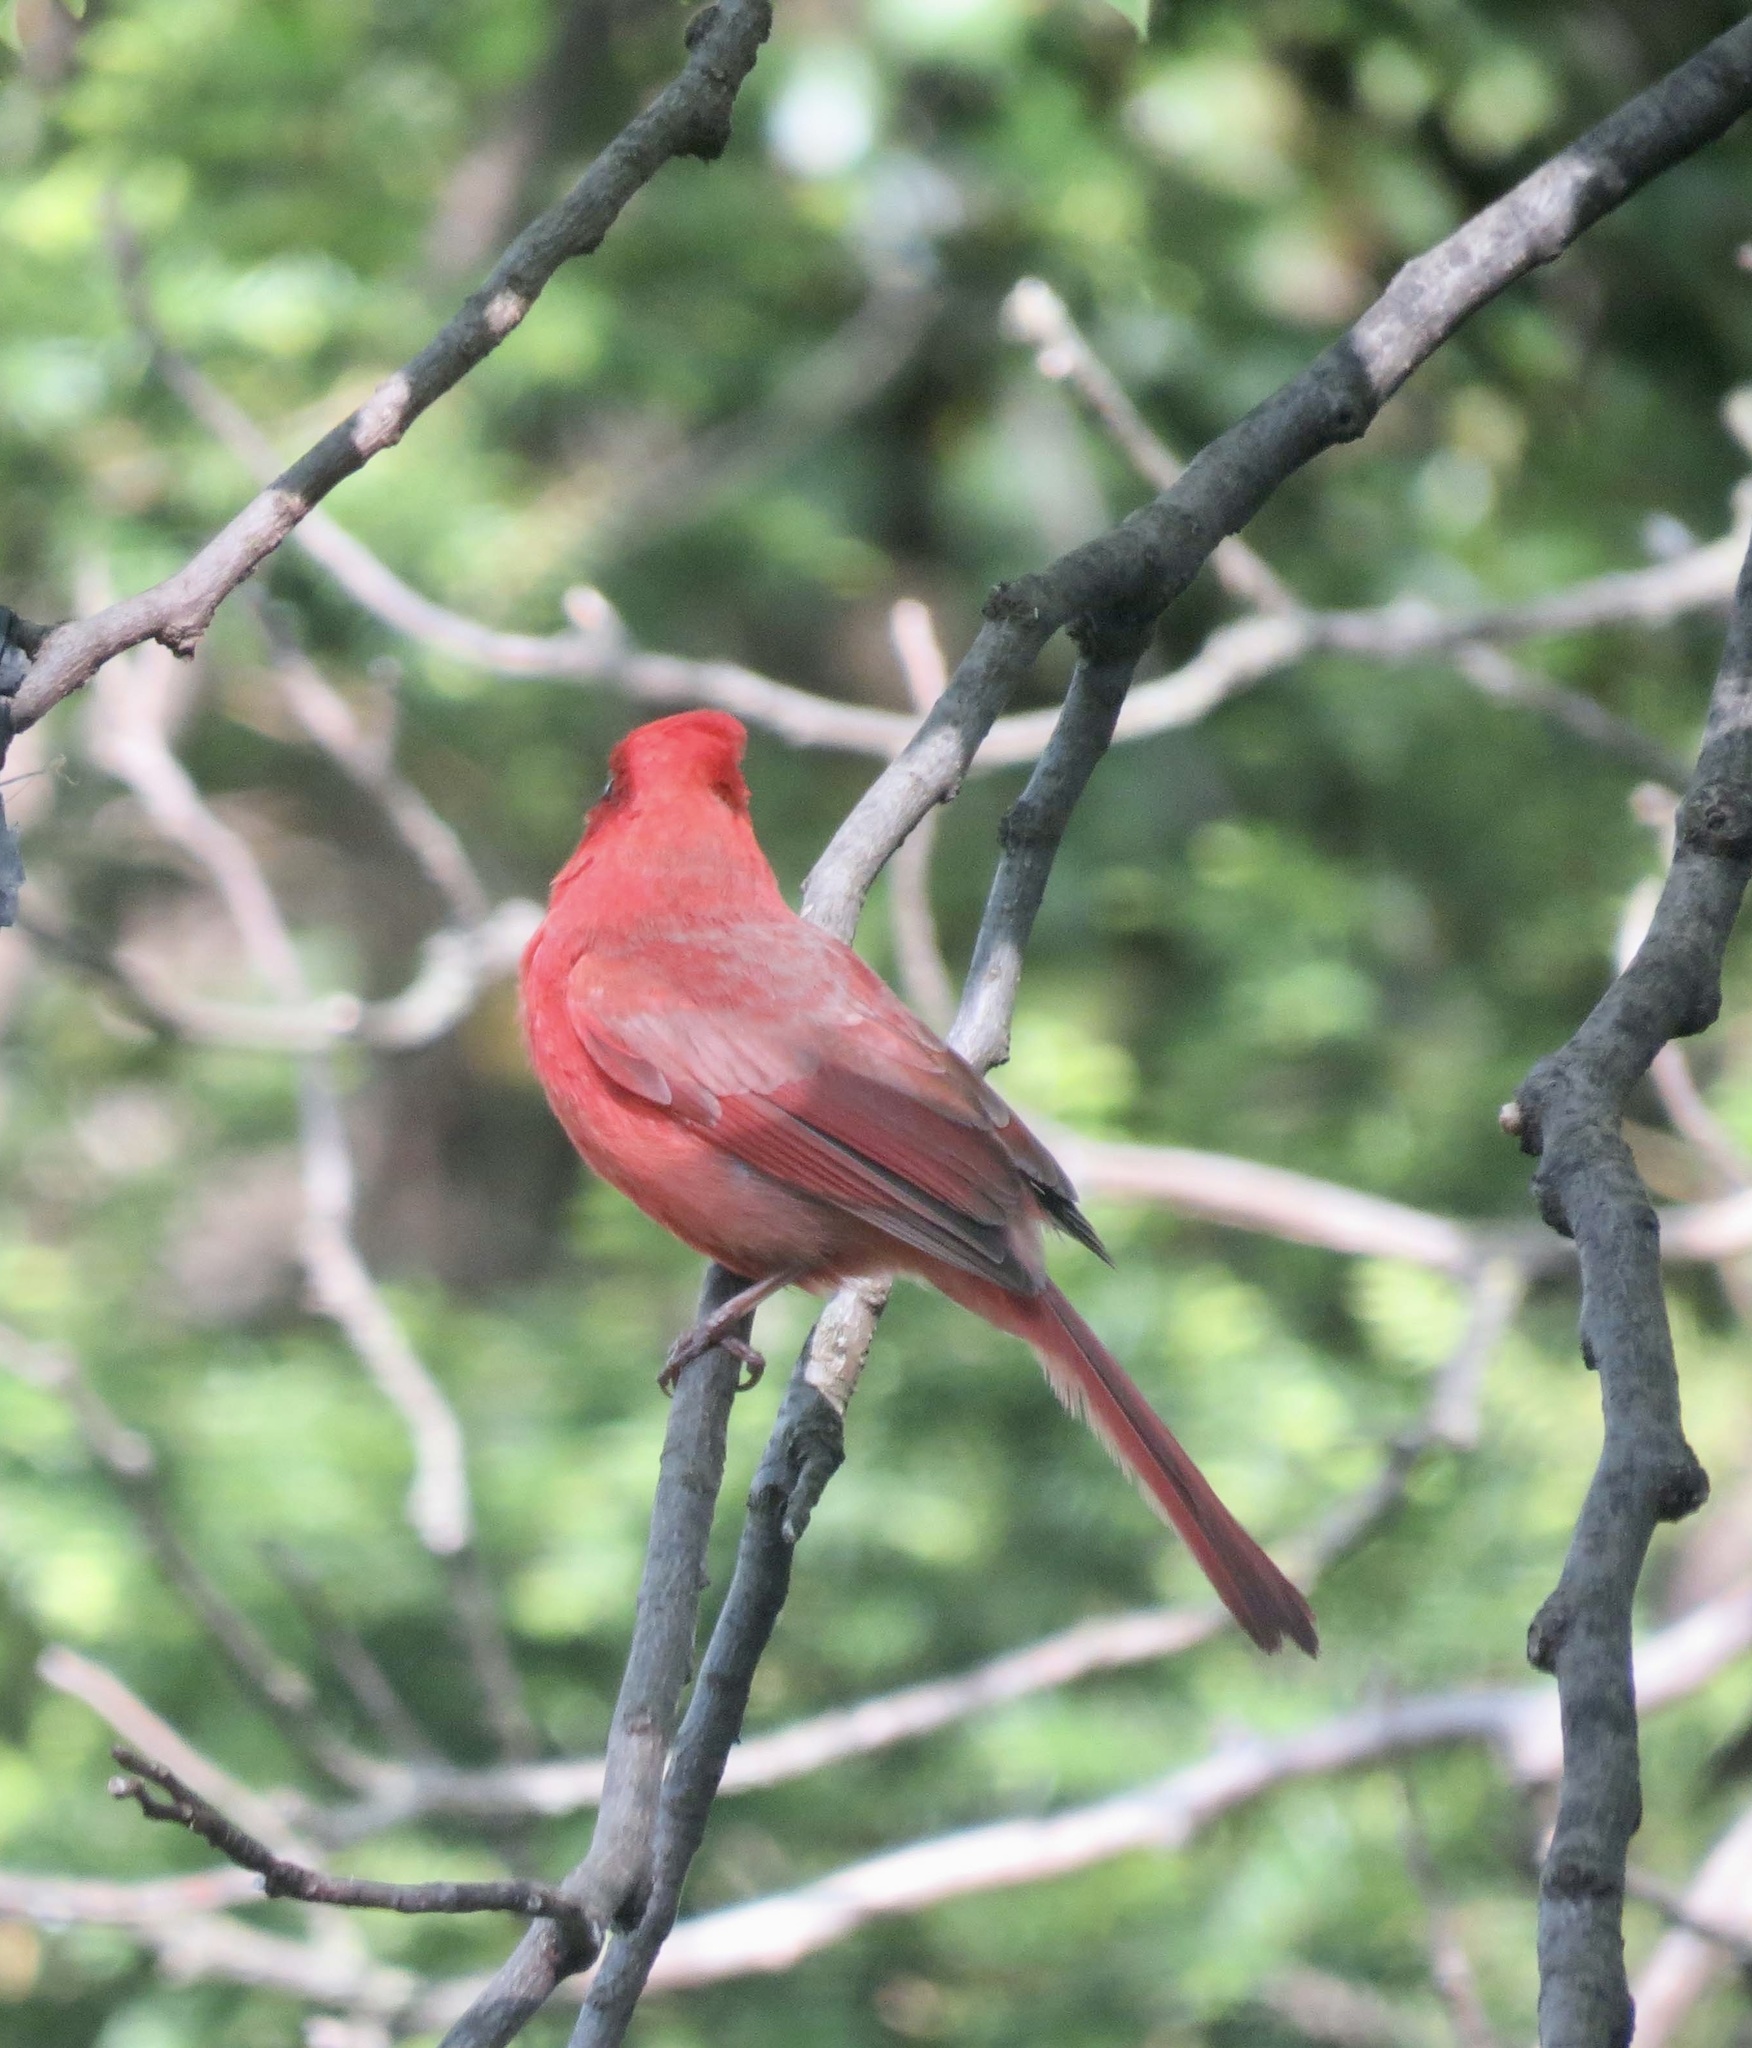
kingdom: Animalia
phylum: Chordata
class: Aves
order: Passeriformes
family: Cardinalidae
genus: Cardinalis
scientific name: Cardinalis cardinalis
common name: Northern cardinal
